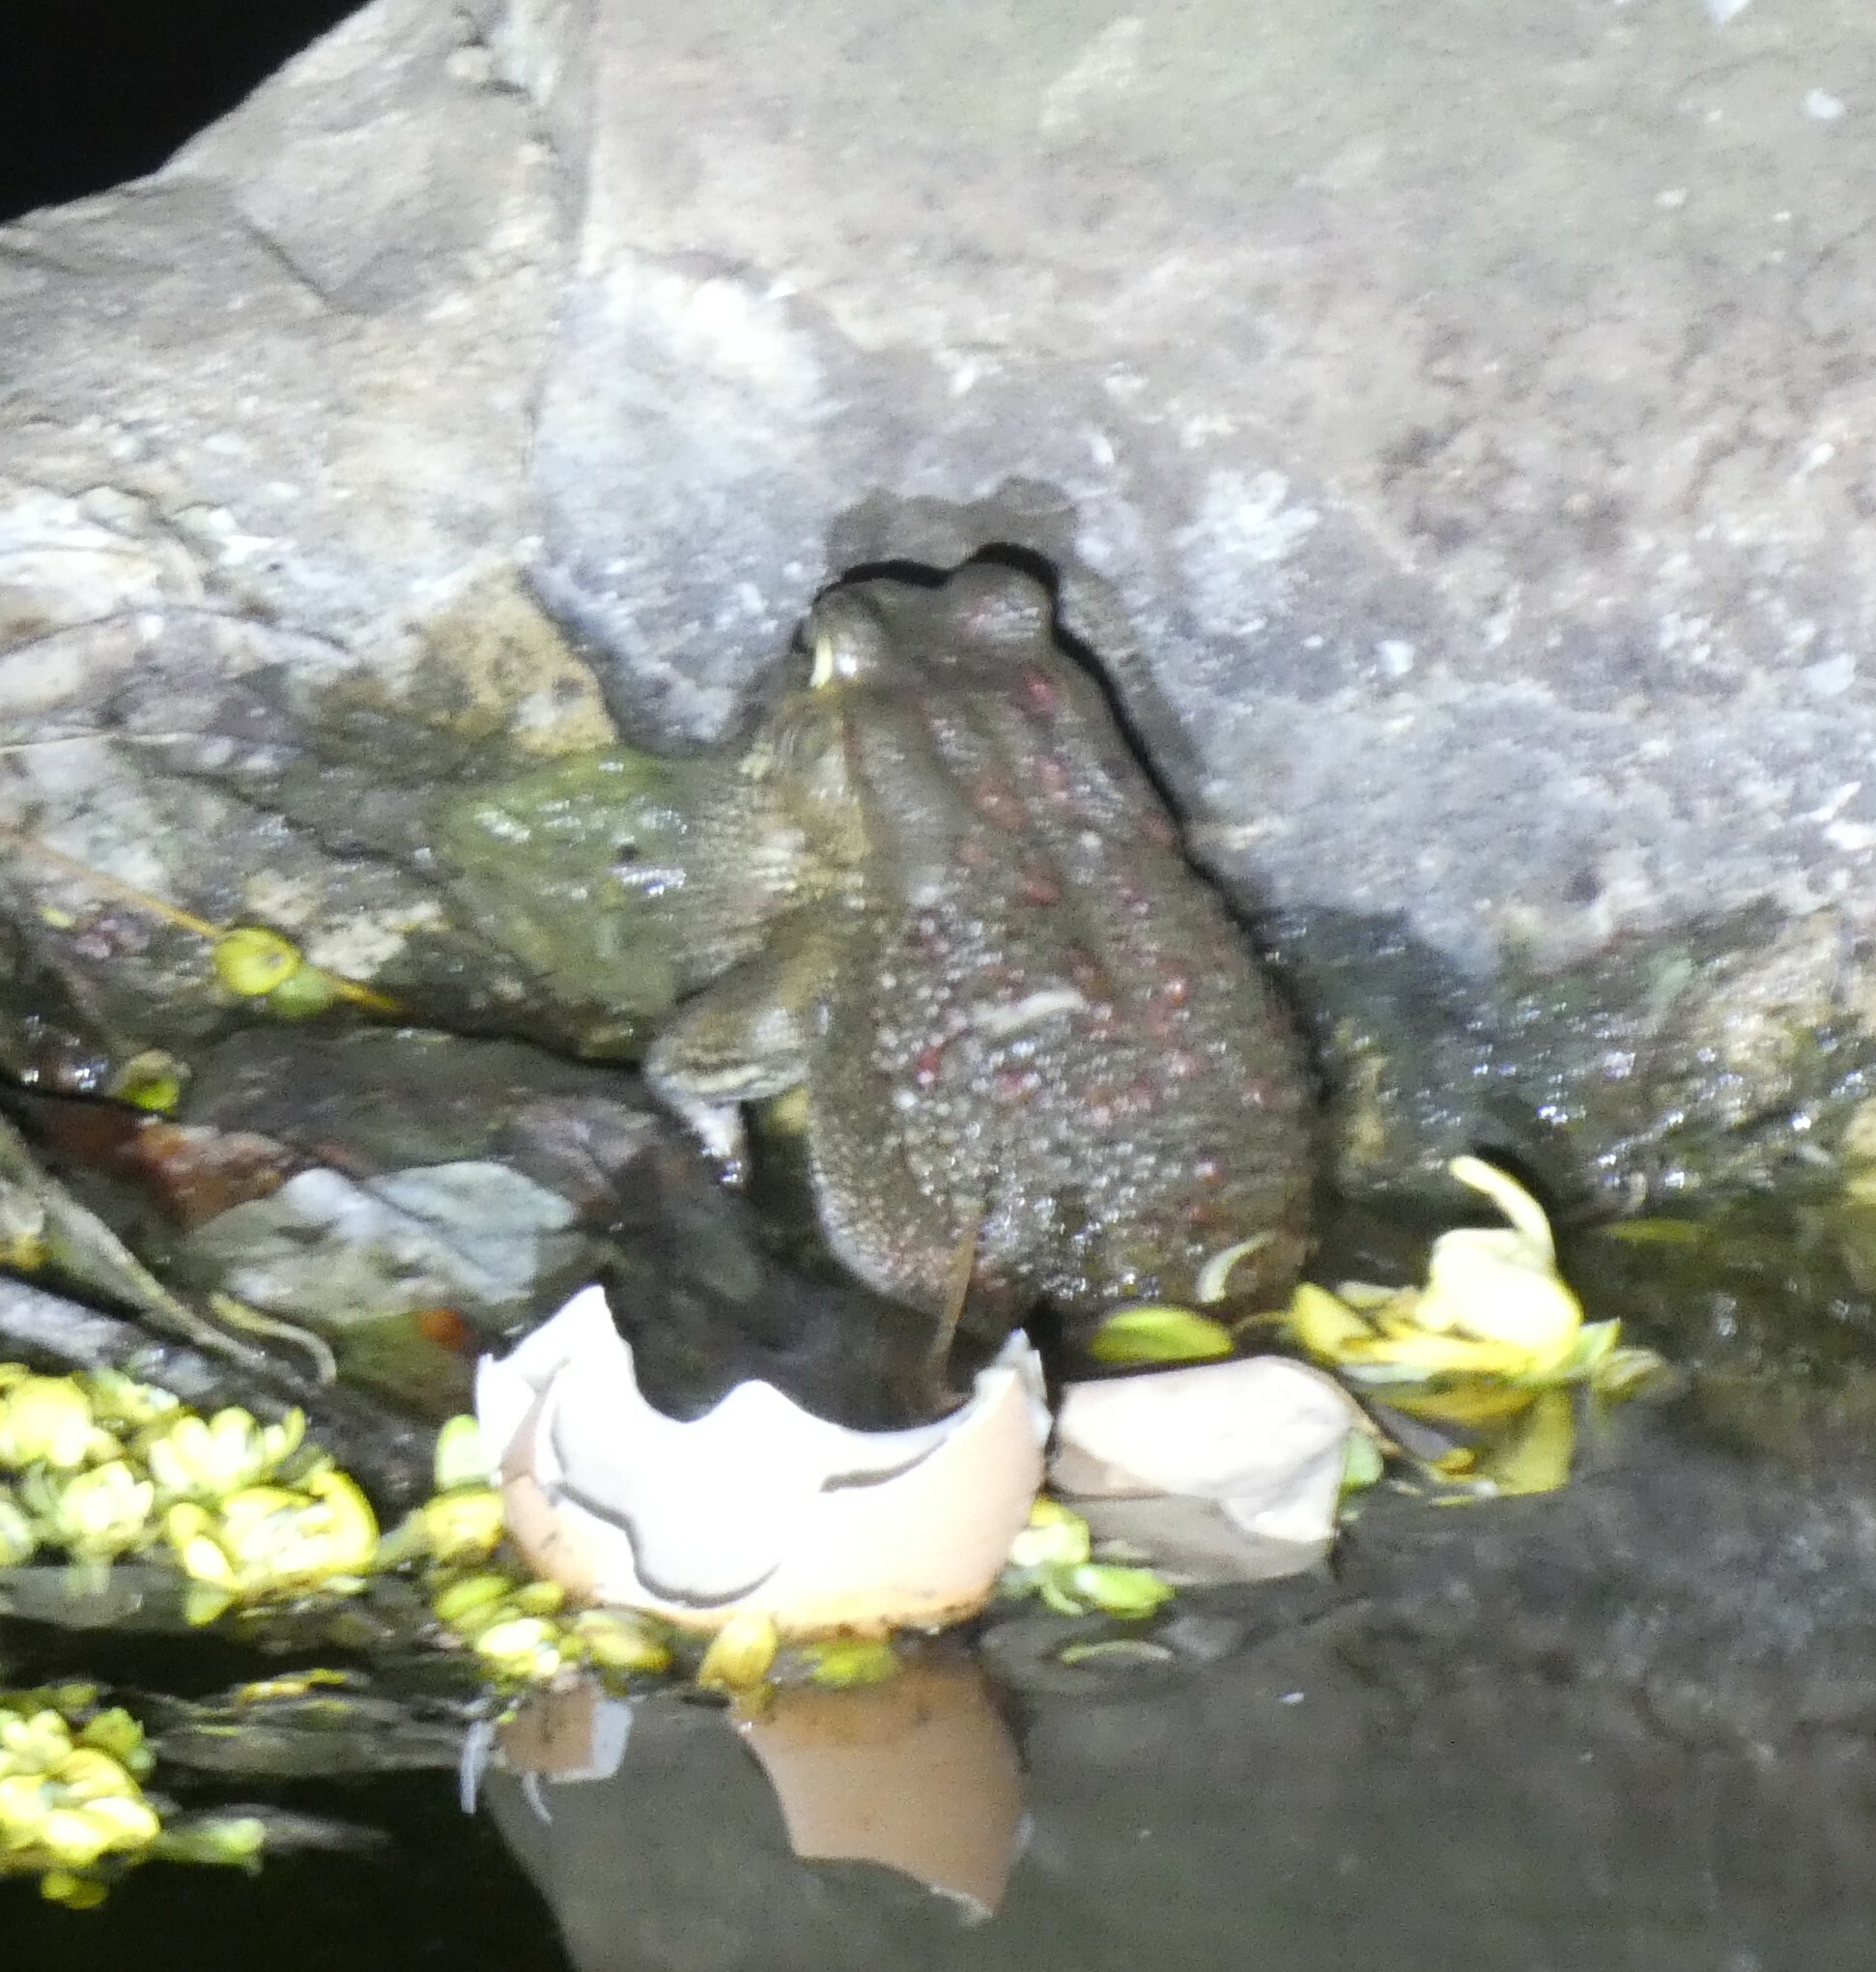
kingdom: Animalia
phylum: Chordata
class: Amphibia
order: Anura
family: Bufonidae
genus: Sclerophrys
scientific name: Sclerophrys garmani
